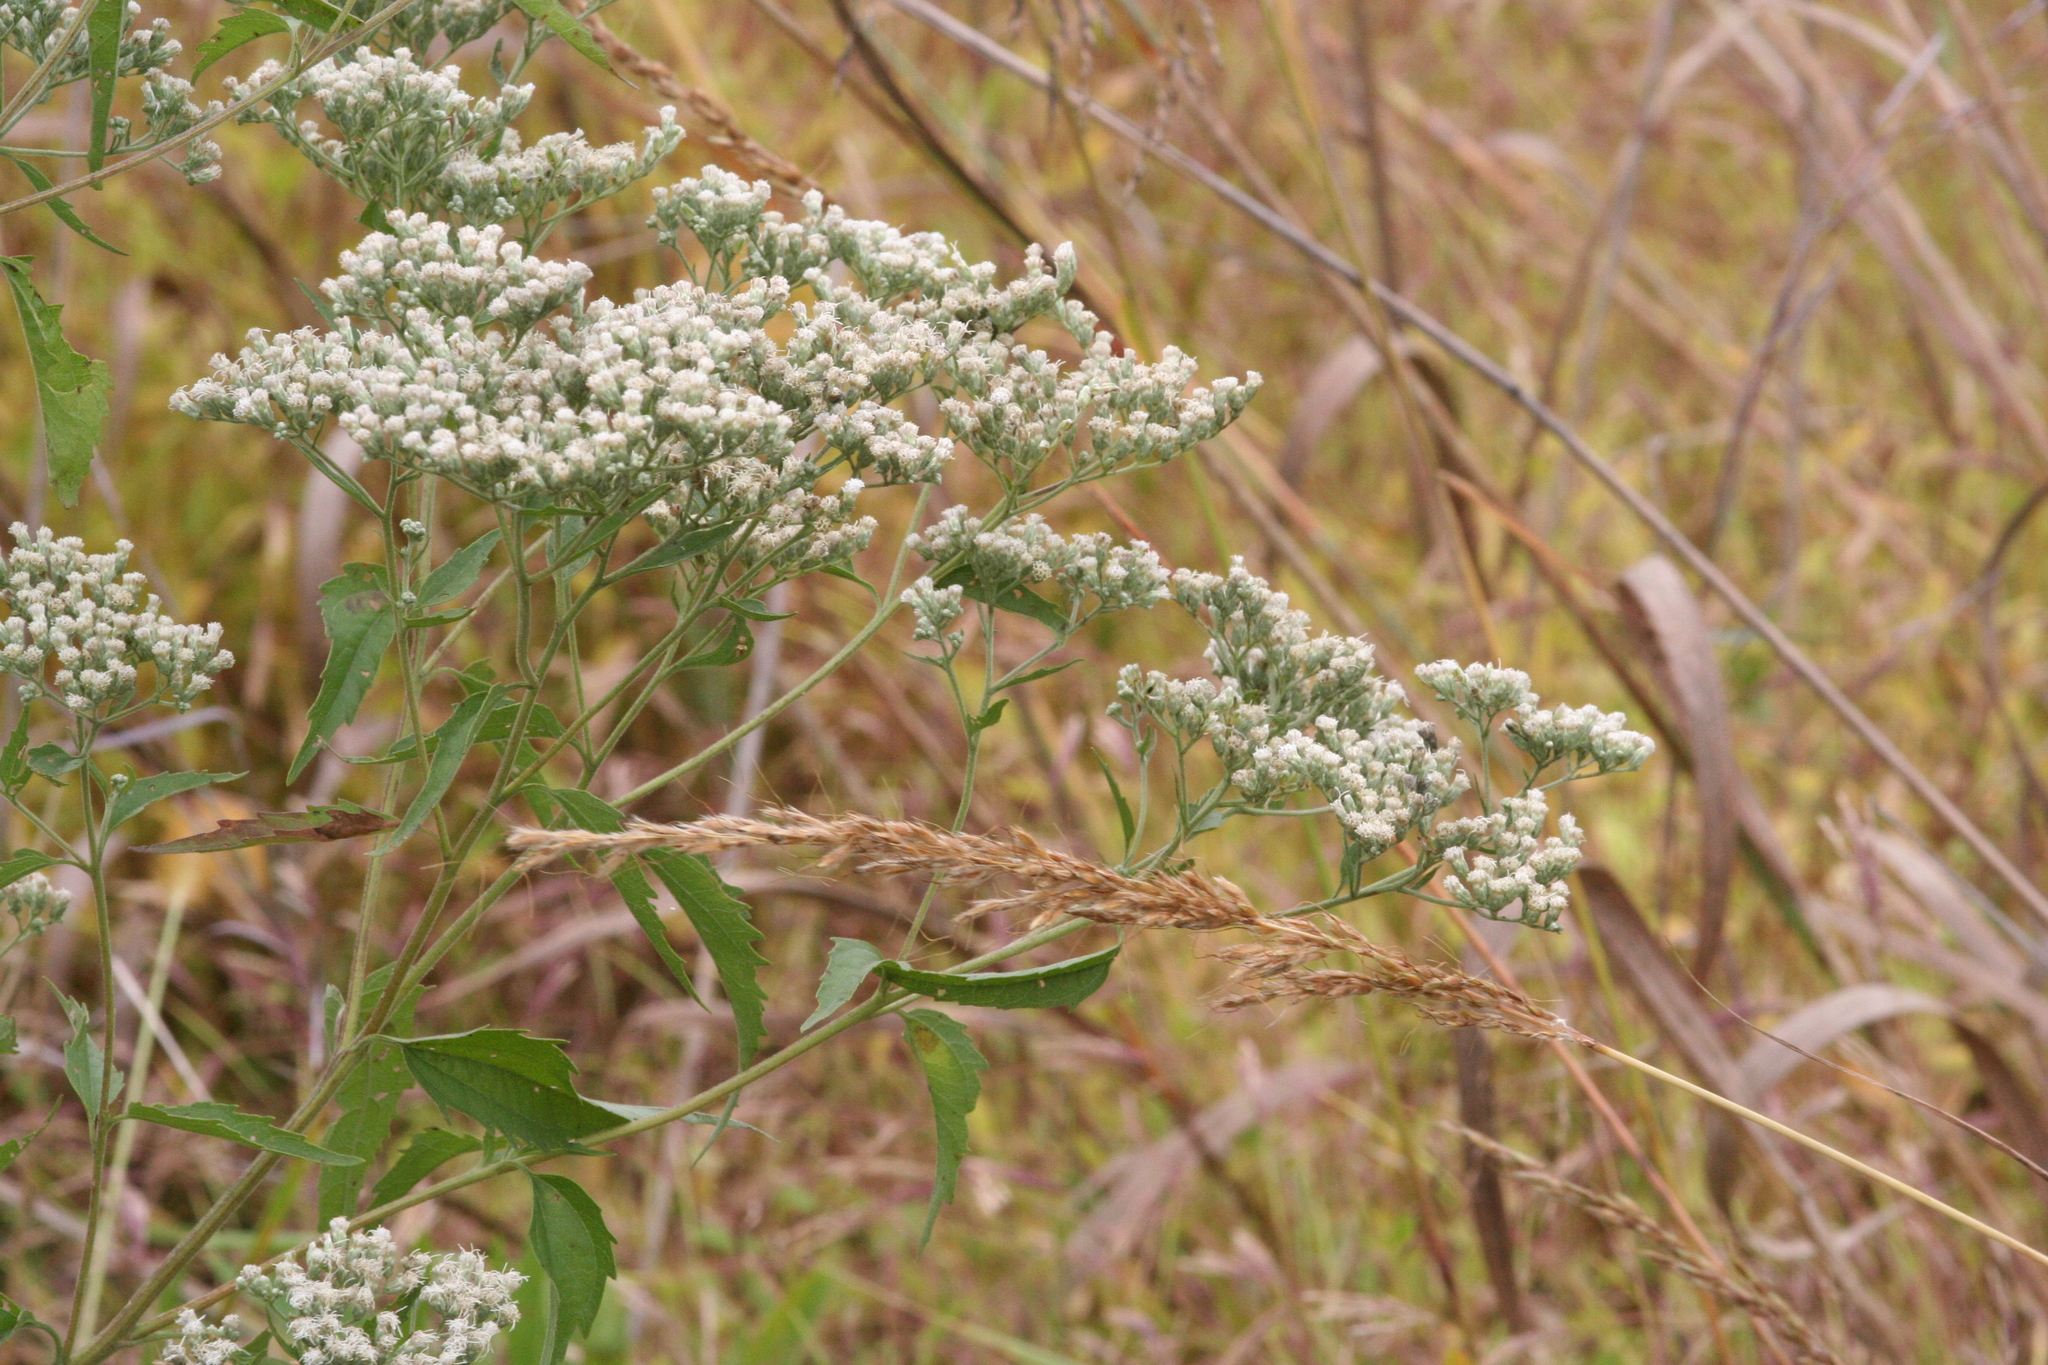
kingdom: Plantae
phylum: Tracheophyta
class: Magnoliopsida
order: Asterales
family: Asteraceae
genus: Eupatorium
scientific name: Eupatorium serotinum
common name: Late boneset
